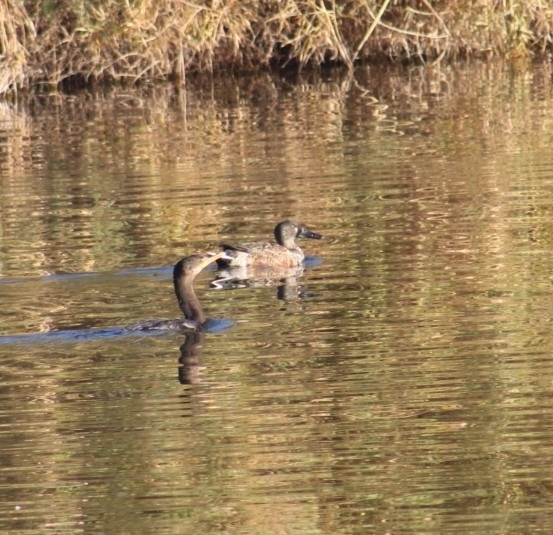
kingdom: Animalia
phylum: Chordata
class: Aves
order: Anseriformes
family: Anatidae
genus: Spatula
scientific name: Spatula clypeata
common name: Northern shoveler
